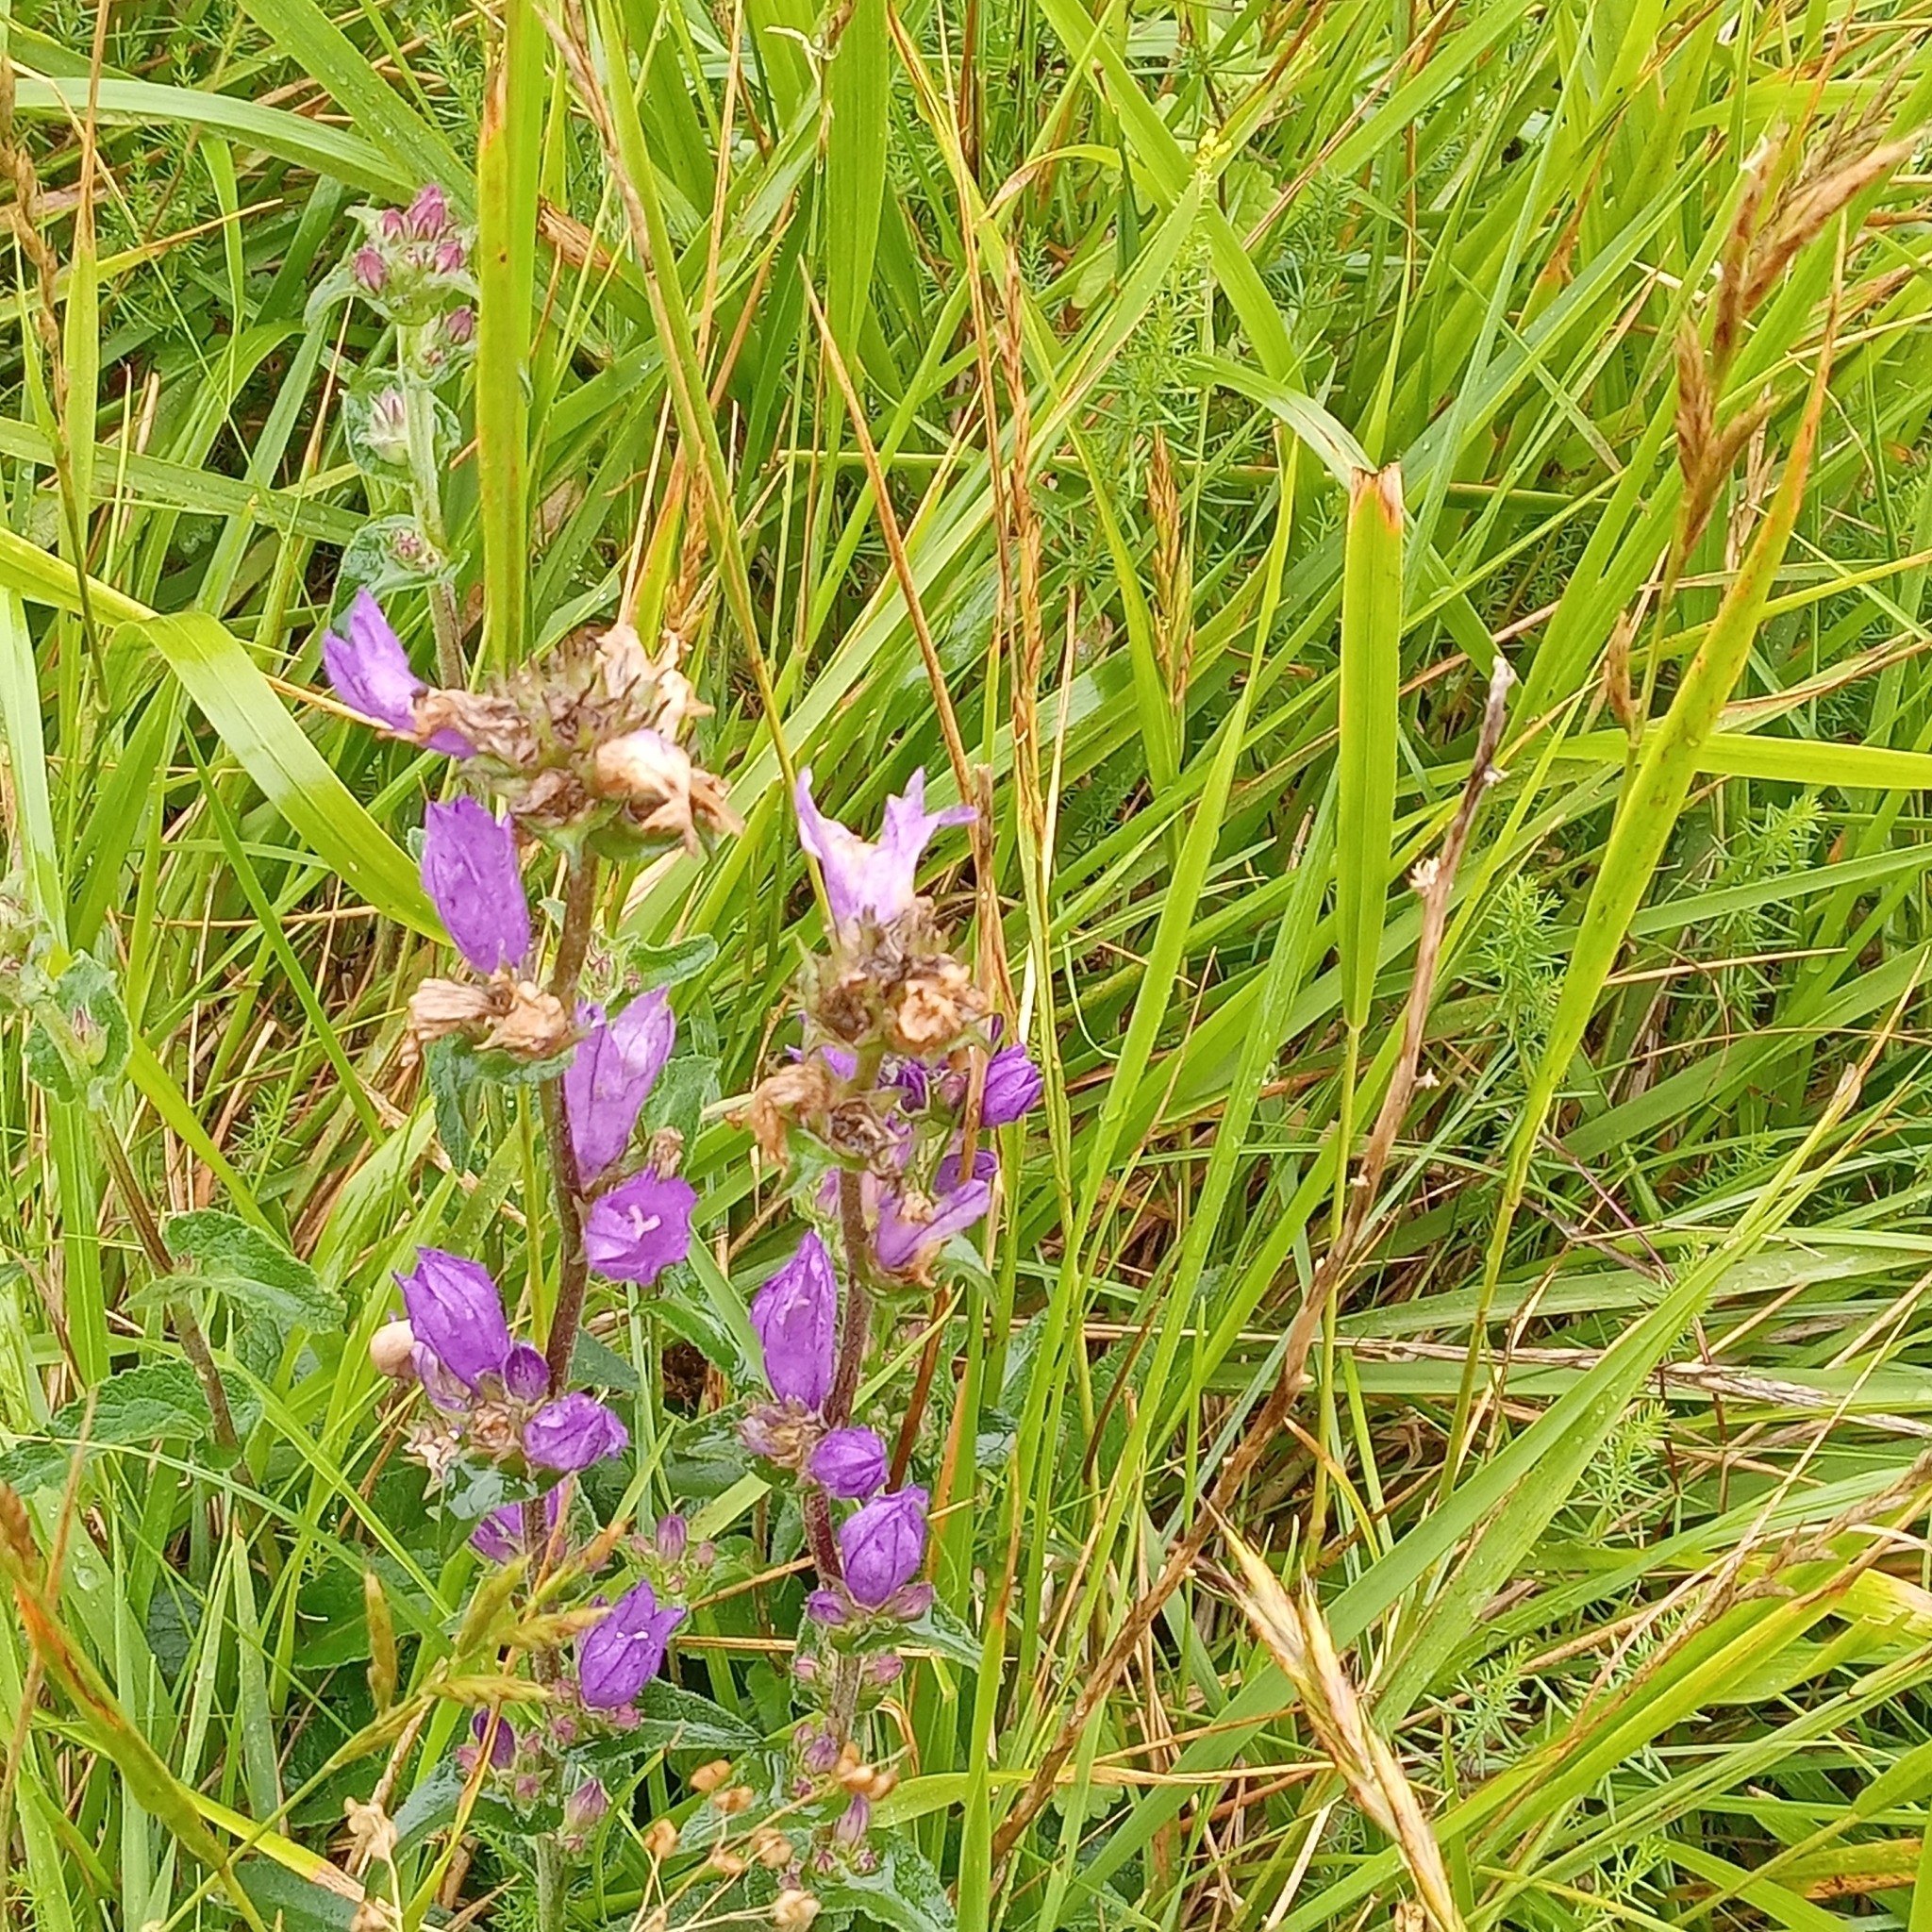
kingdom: Plantae
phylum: Tracheophyta
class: Magnoliopsida
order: Asterales
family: Campanulaceae
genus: Campanula
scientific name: Campanula glomerata
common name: Clustered bellflower
